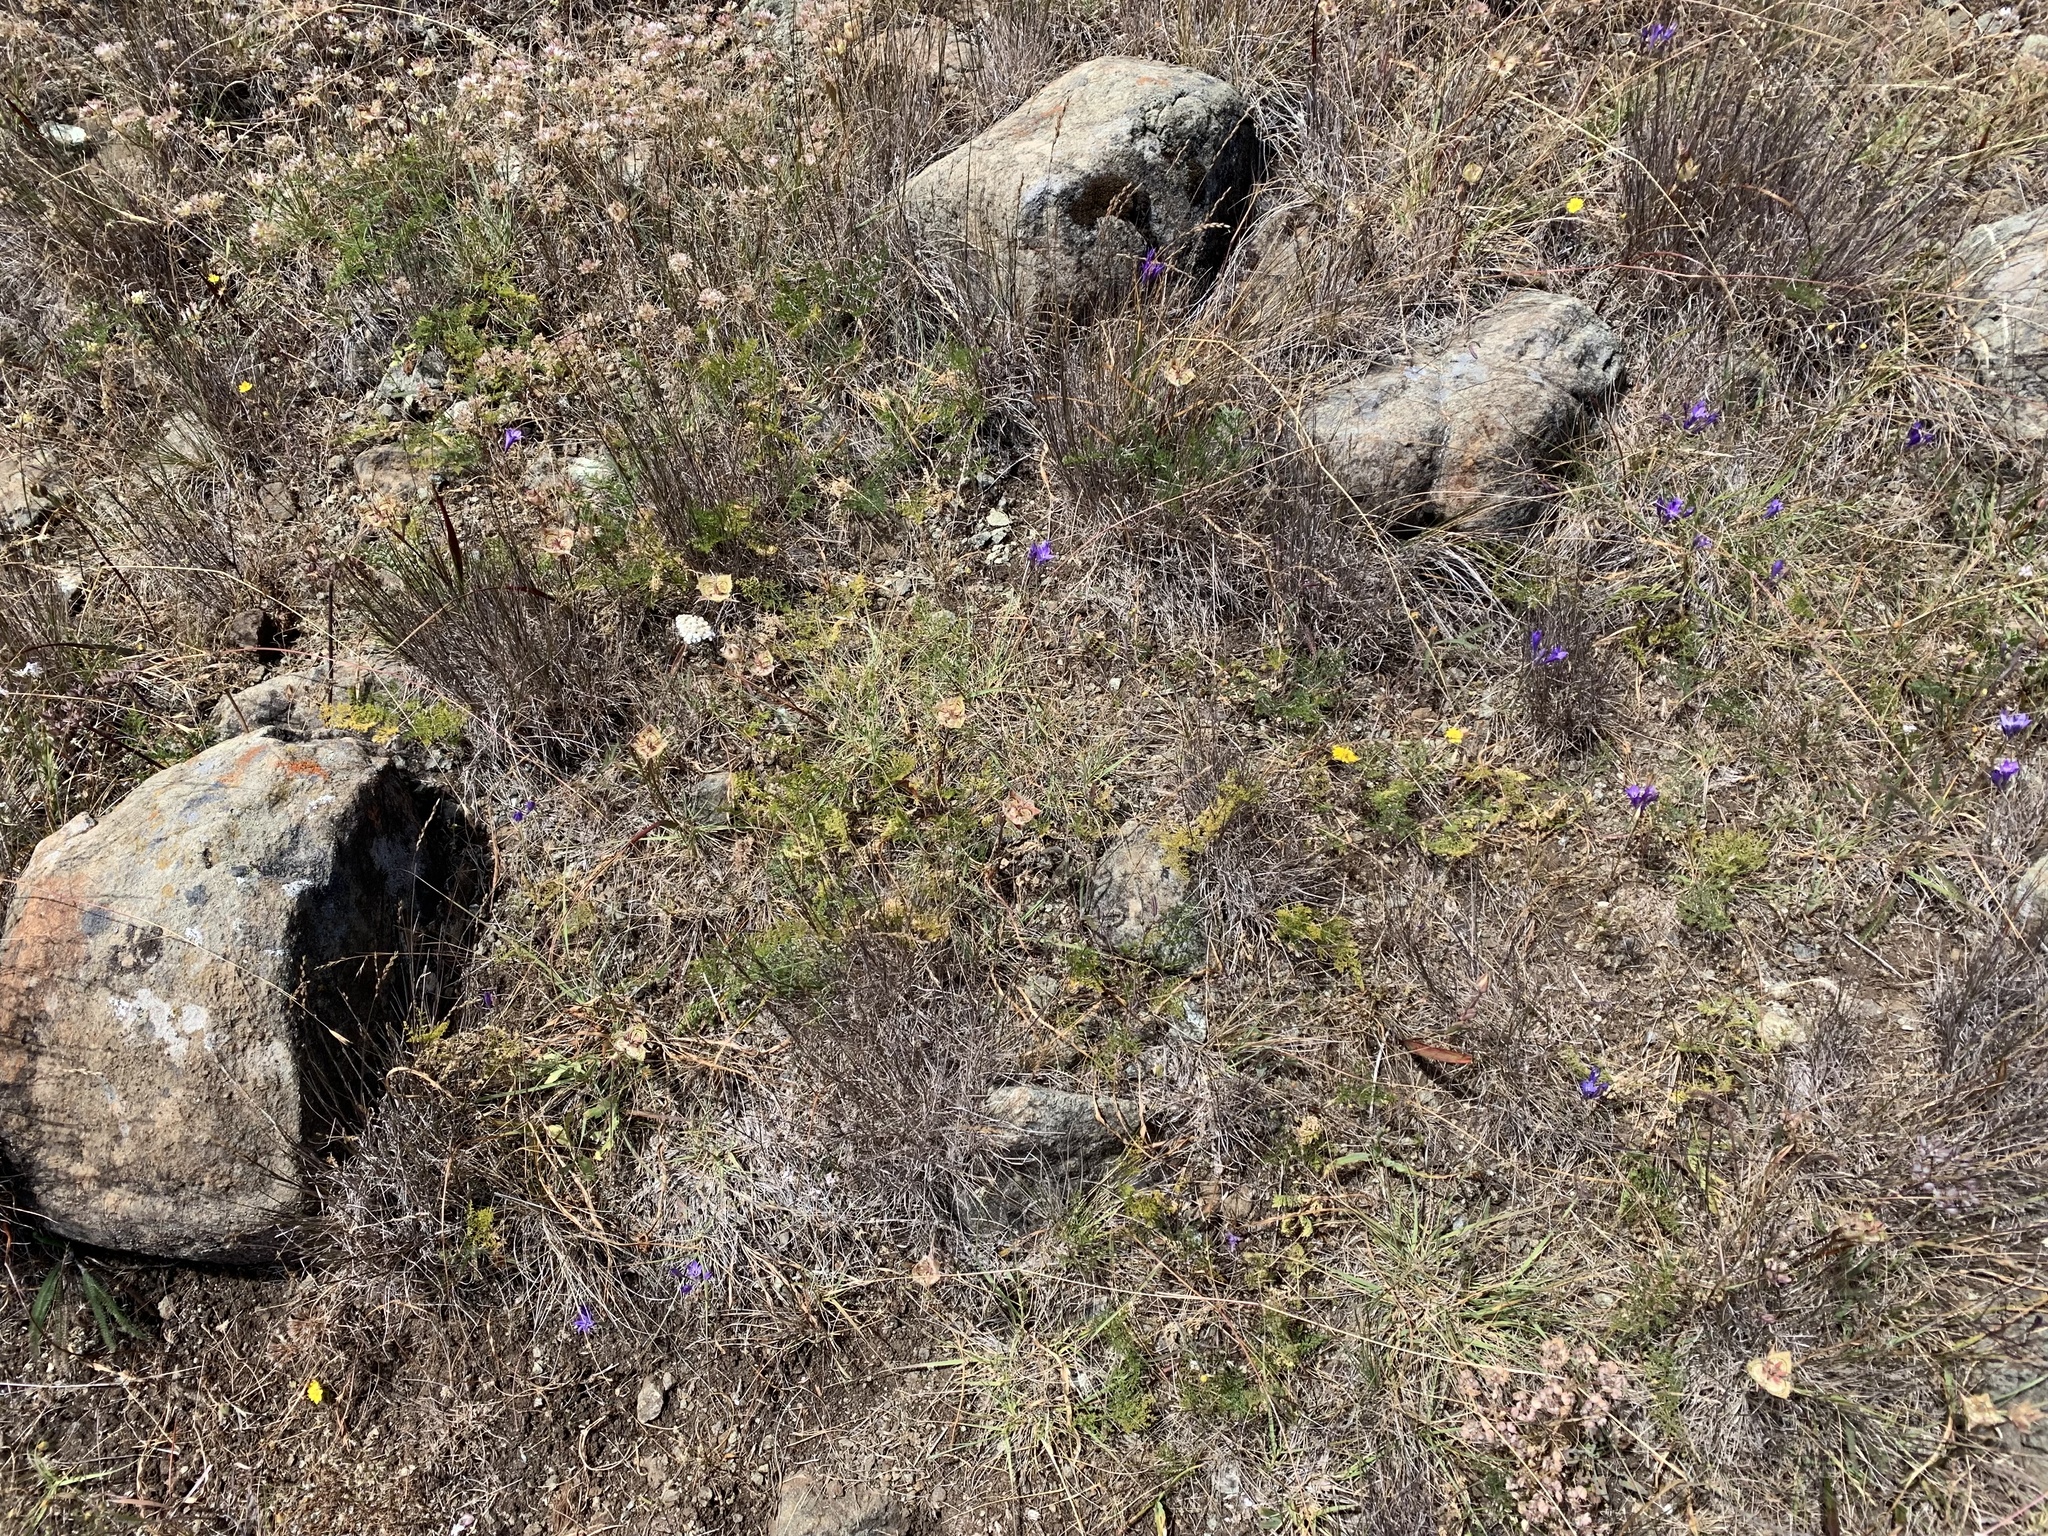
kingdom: Plantae
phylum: Tracheophyta
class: Liliopsida
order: Liliales
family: Liliaceae
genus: Calochortus
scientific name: Calochortus tiburonensis
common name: Tiburon mariposa-lily
